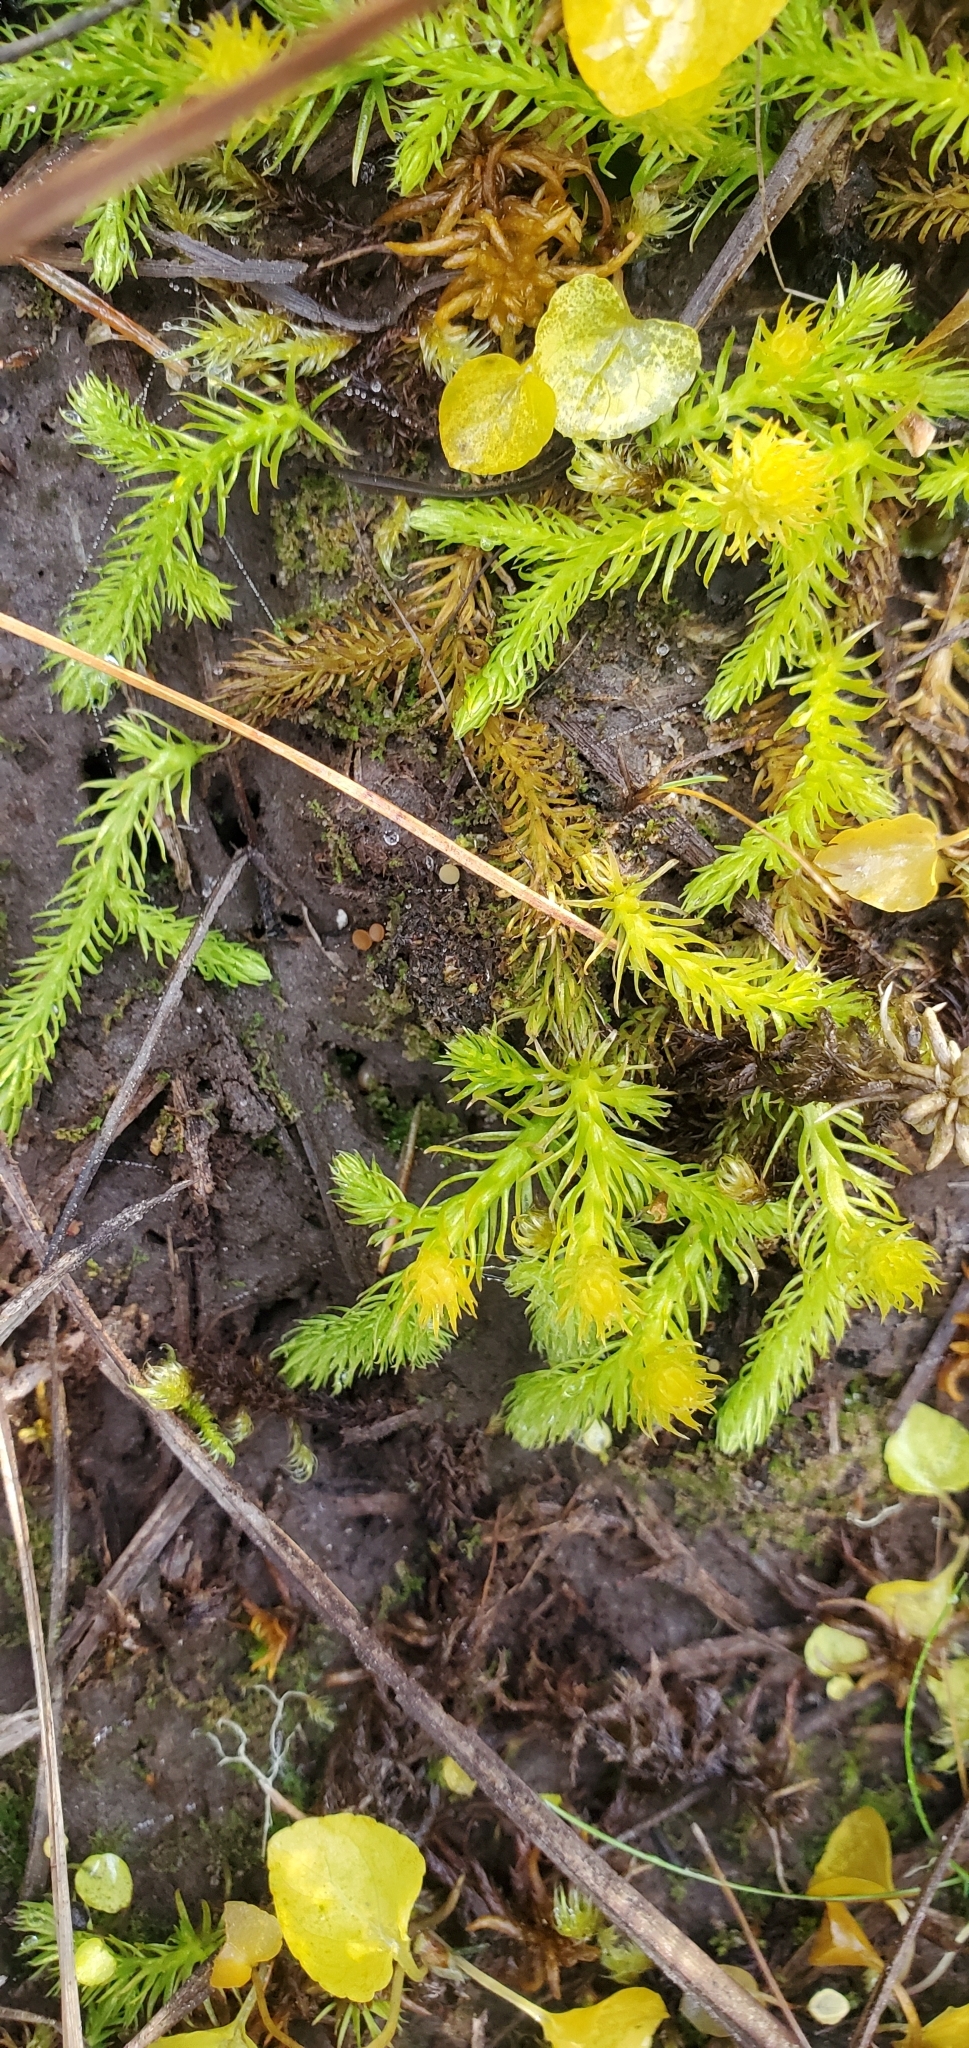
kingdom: Plantae
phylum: Tracheophyta
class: Lycopodiopsida
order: Lycopodiales
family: Lycopodiaceae
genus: Lycopodiella
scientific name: Lycopodiella inundata
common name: Marsh clubmoss
